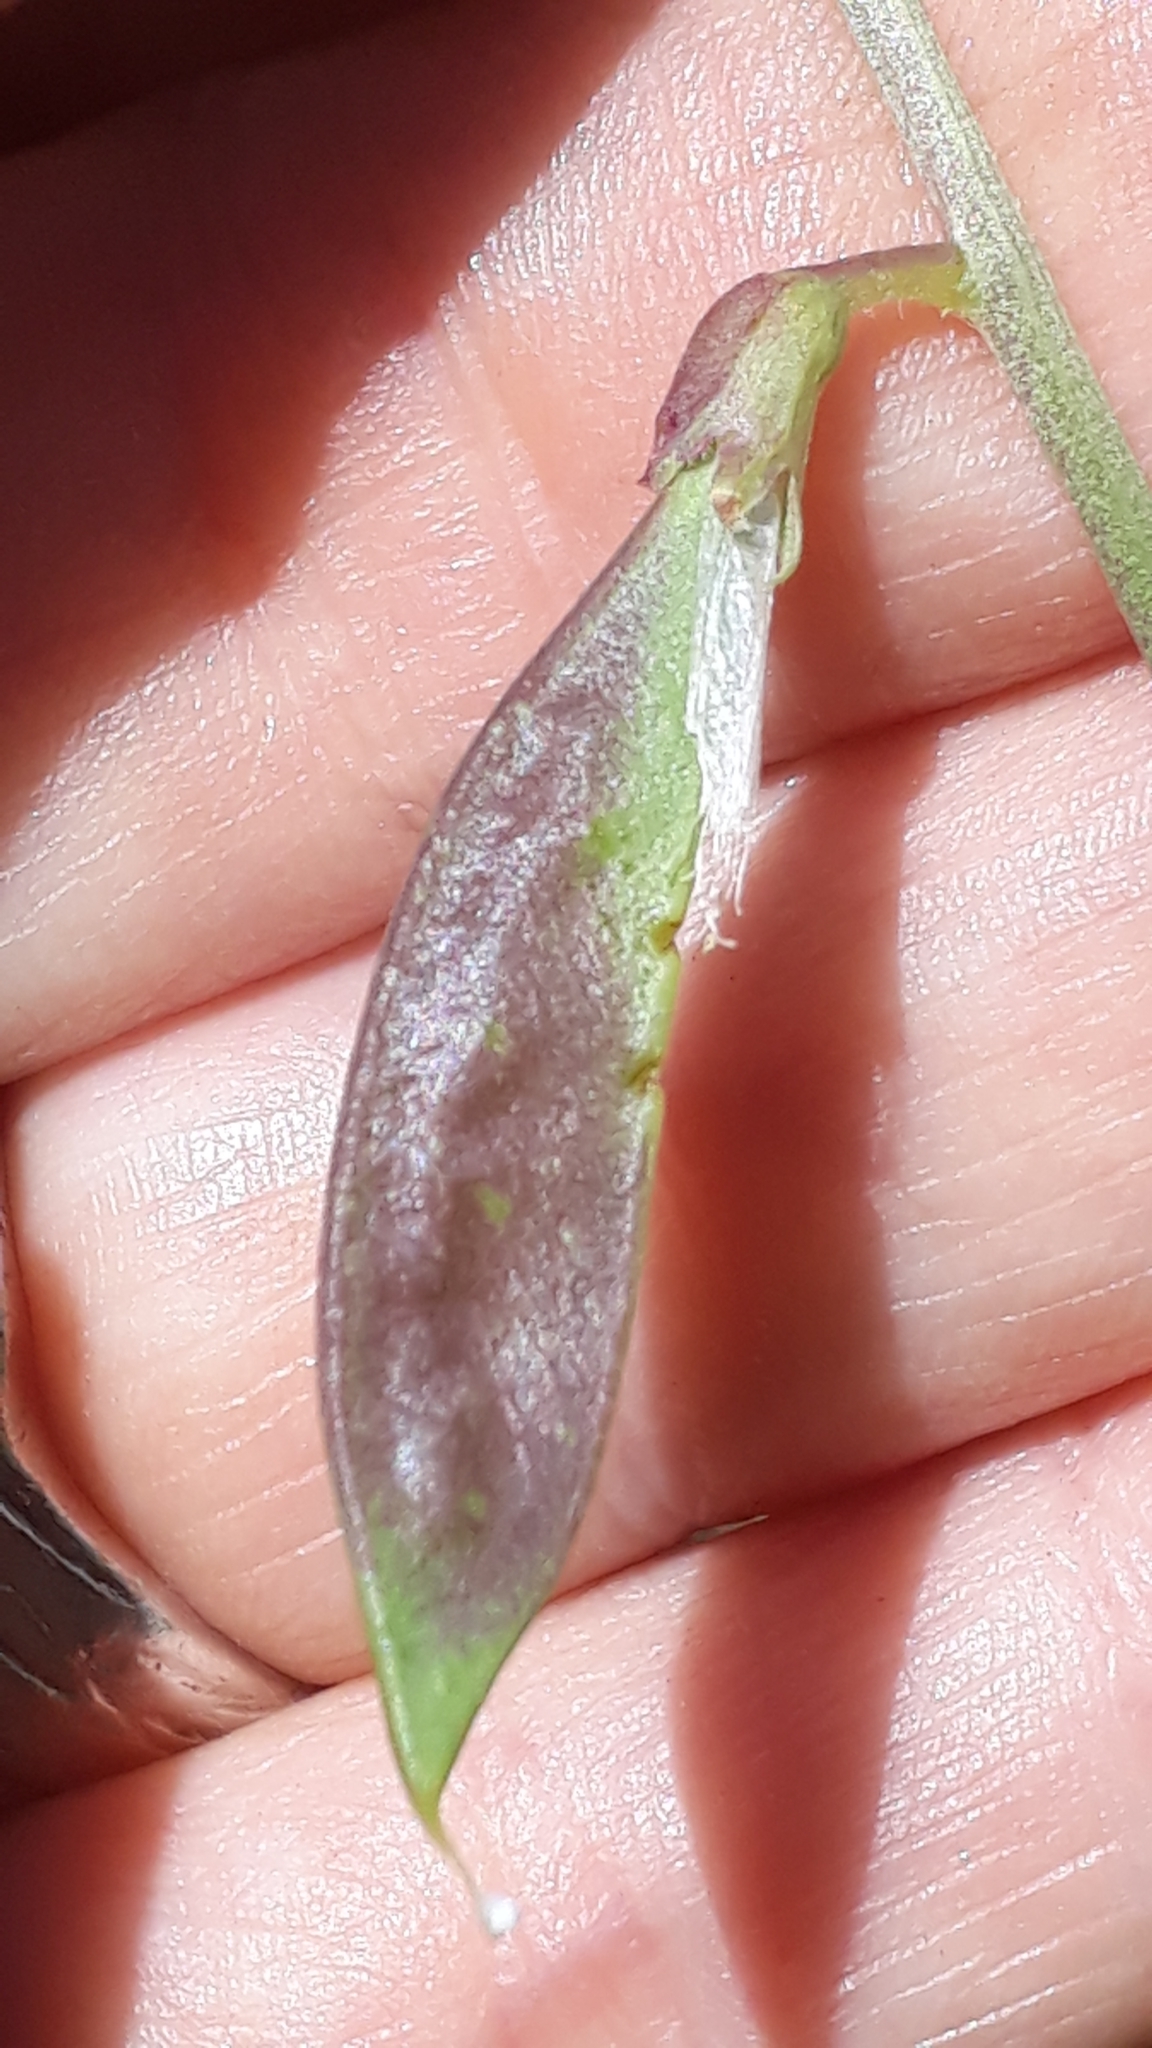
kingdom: Plantae
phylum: Tracheophyta
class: Magnoliopsida
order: Fabales
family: Fabaceae
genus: Vicia
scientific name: Vicia onobrychioides
